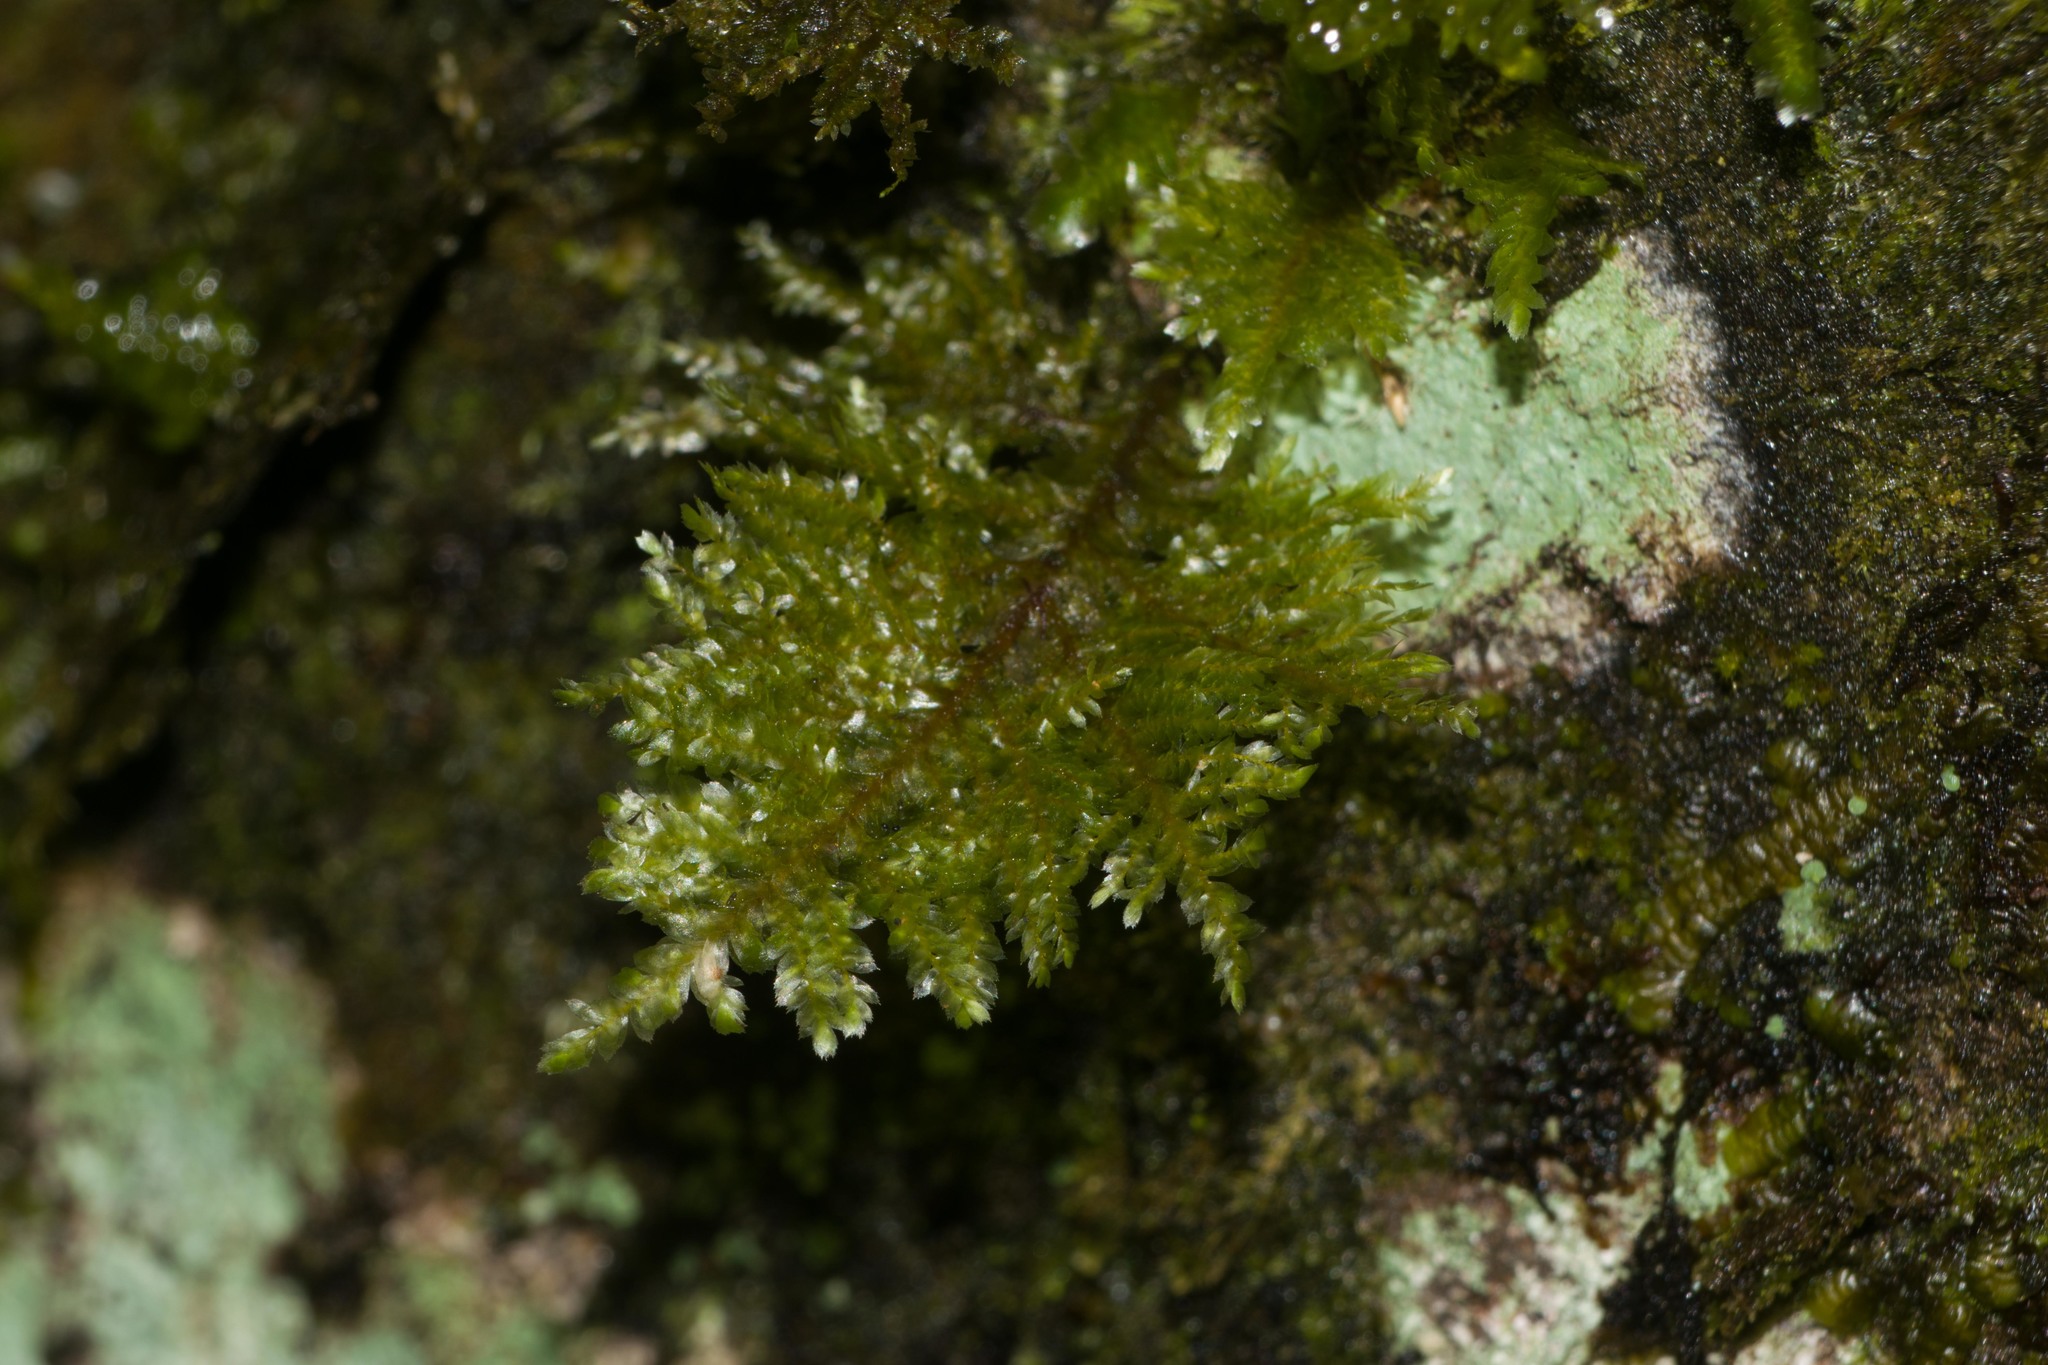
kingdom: Plantae
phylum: Bryophyta
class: Bryopsida
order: Hypnales
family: Neckeraceae
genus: Homaliodendron
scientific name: Homaliodendron flabellatum
